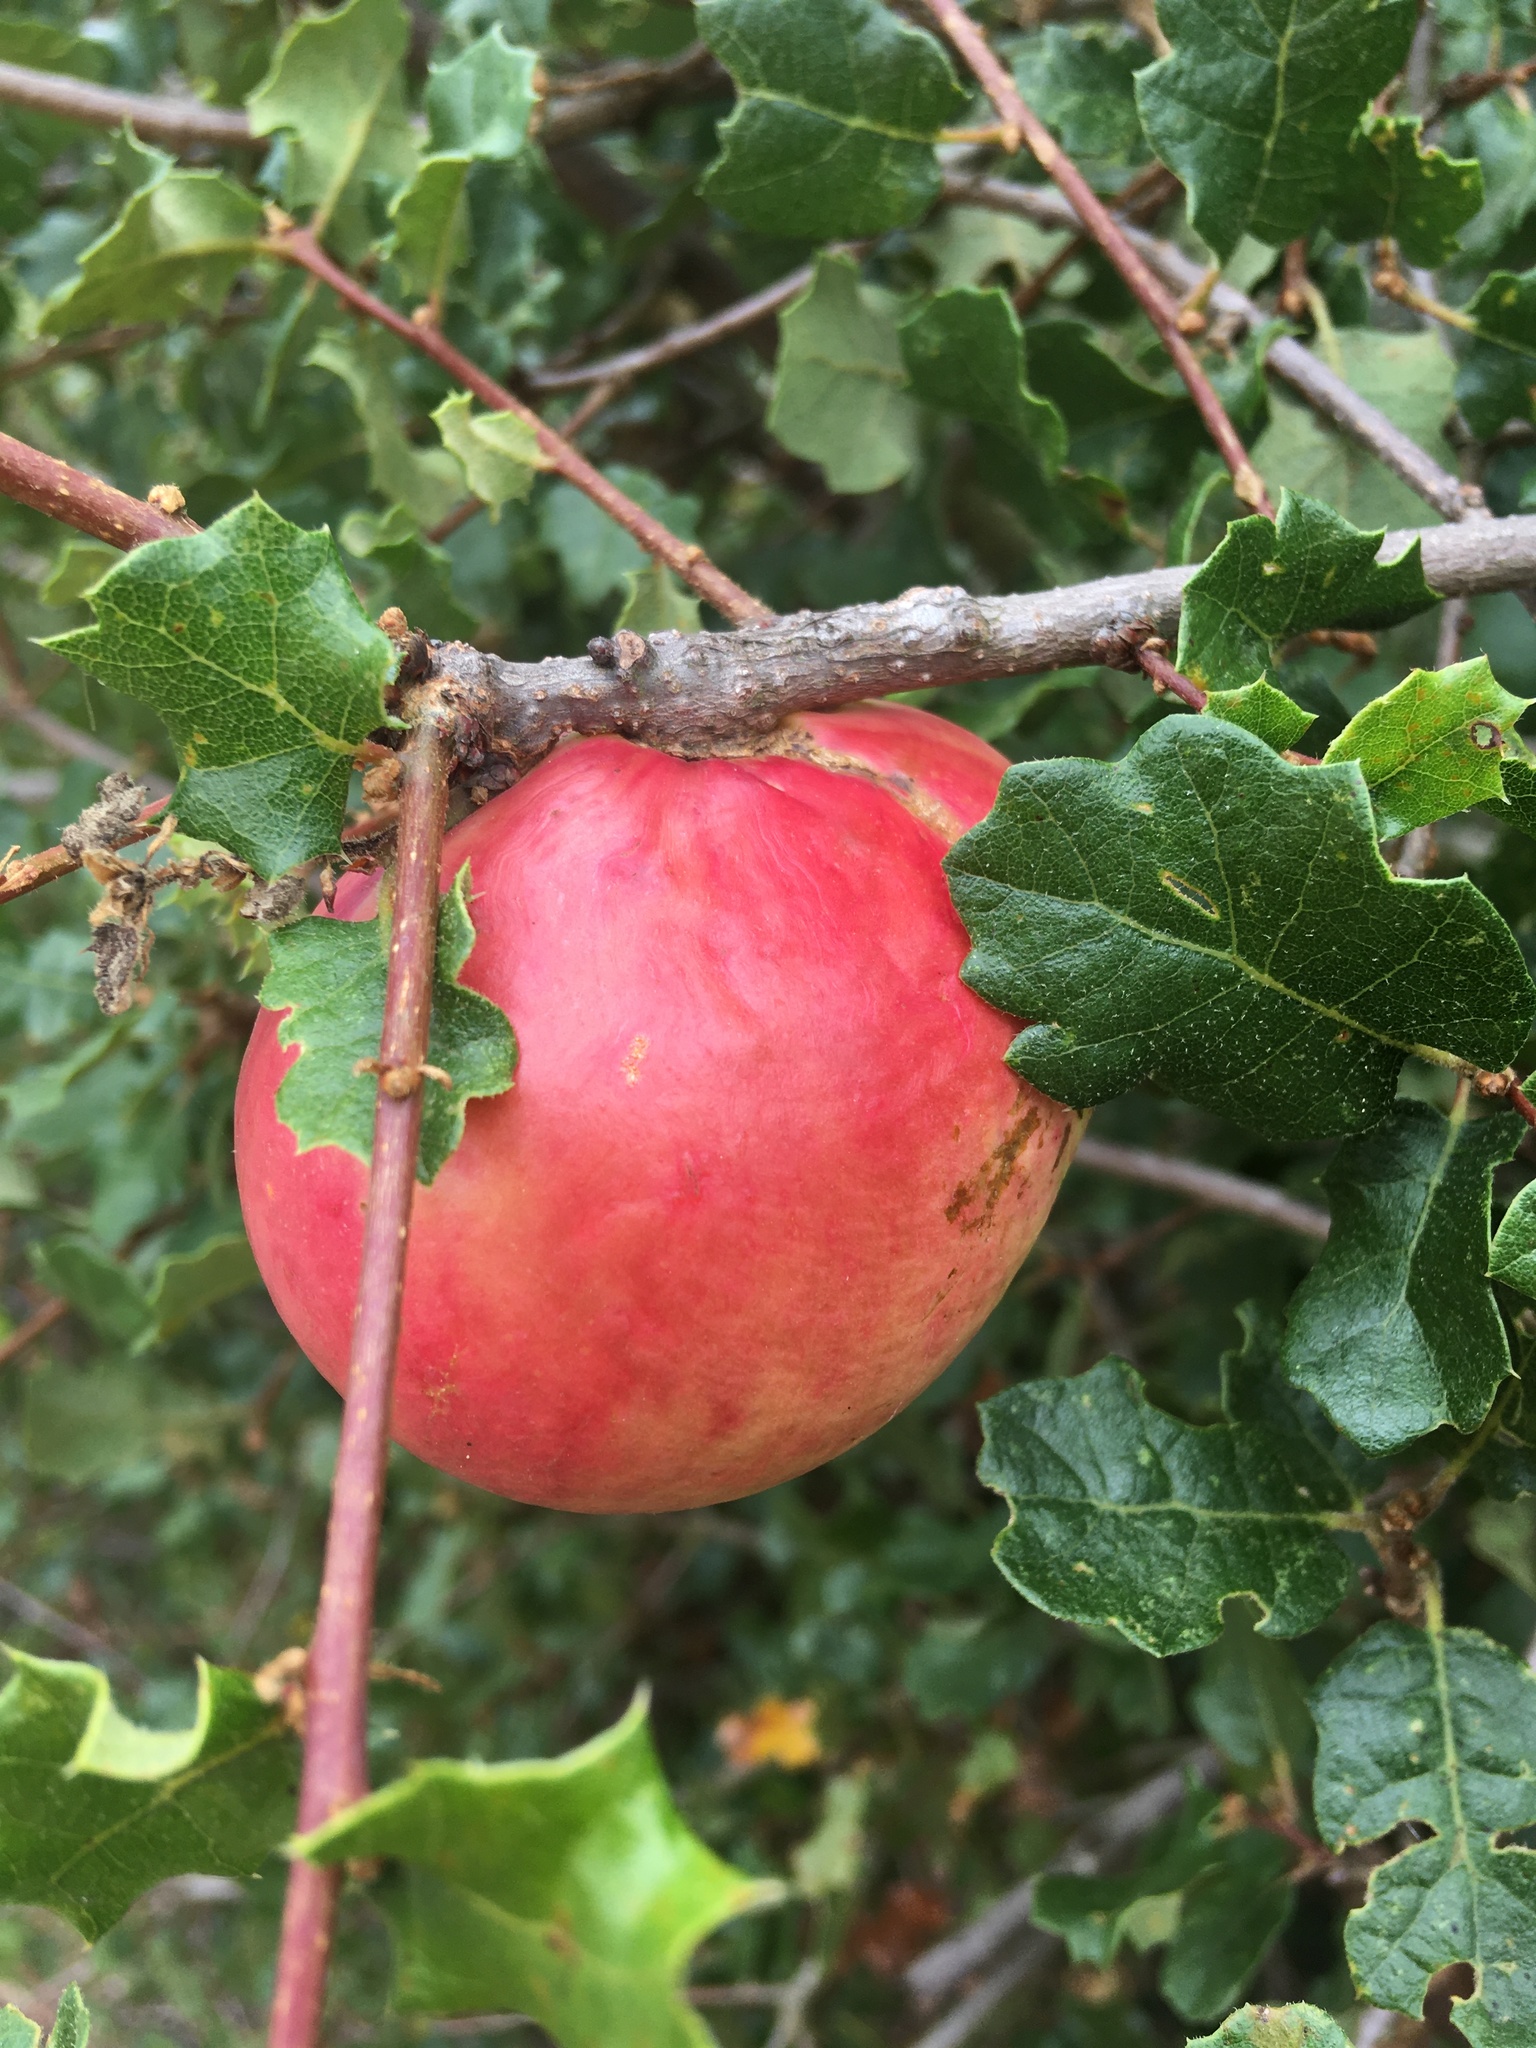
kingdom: Animalia
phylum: Arthropoda
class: Insecta
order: Hymenoptera
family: Cynipidae
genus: Andricus
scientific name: Andricus quercuscalifornicus
